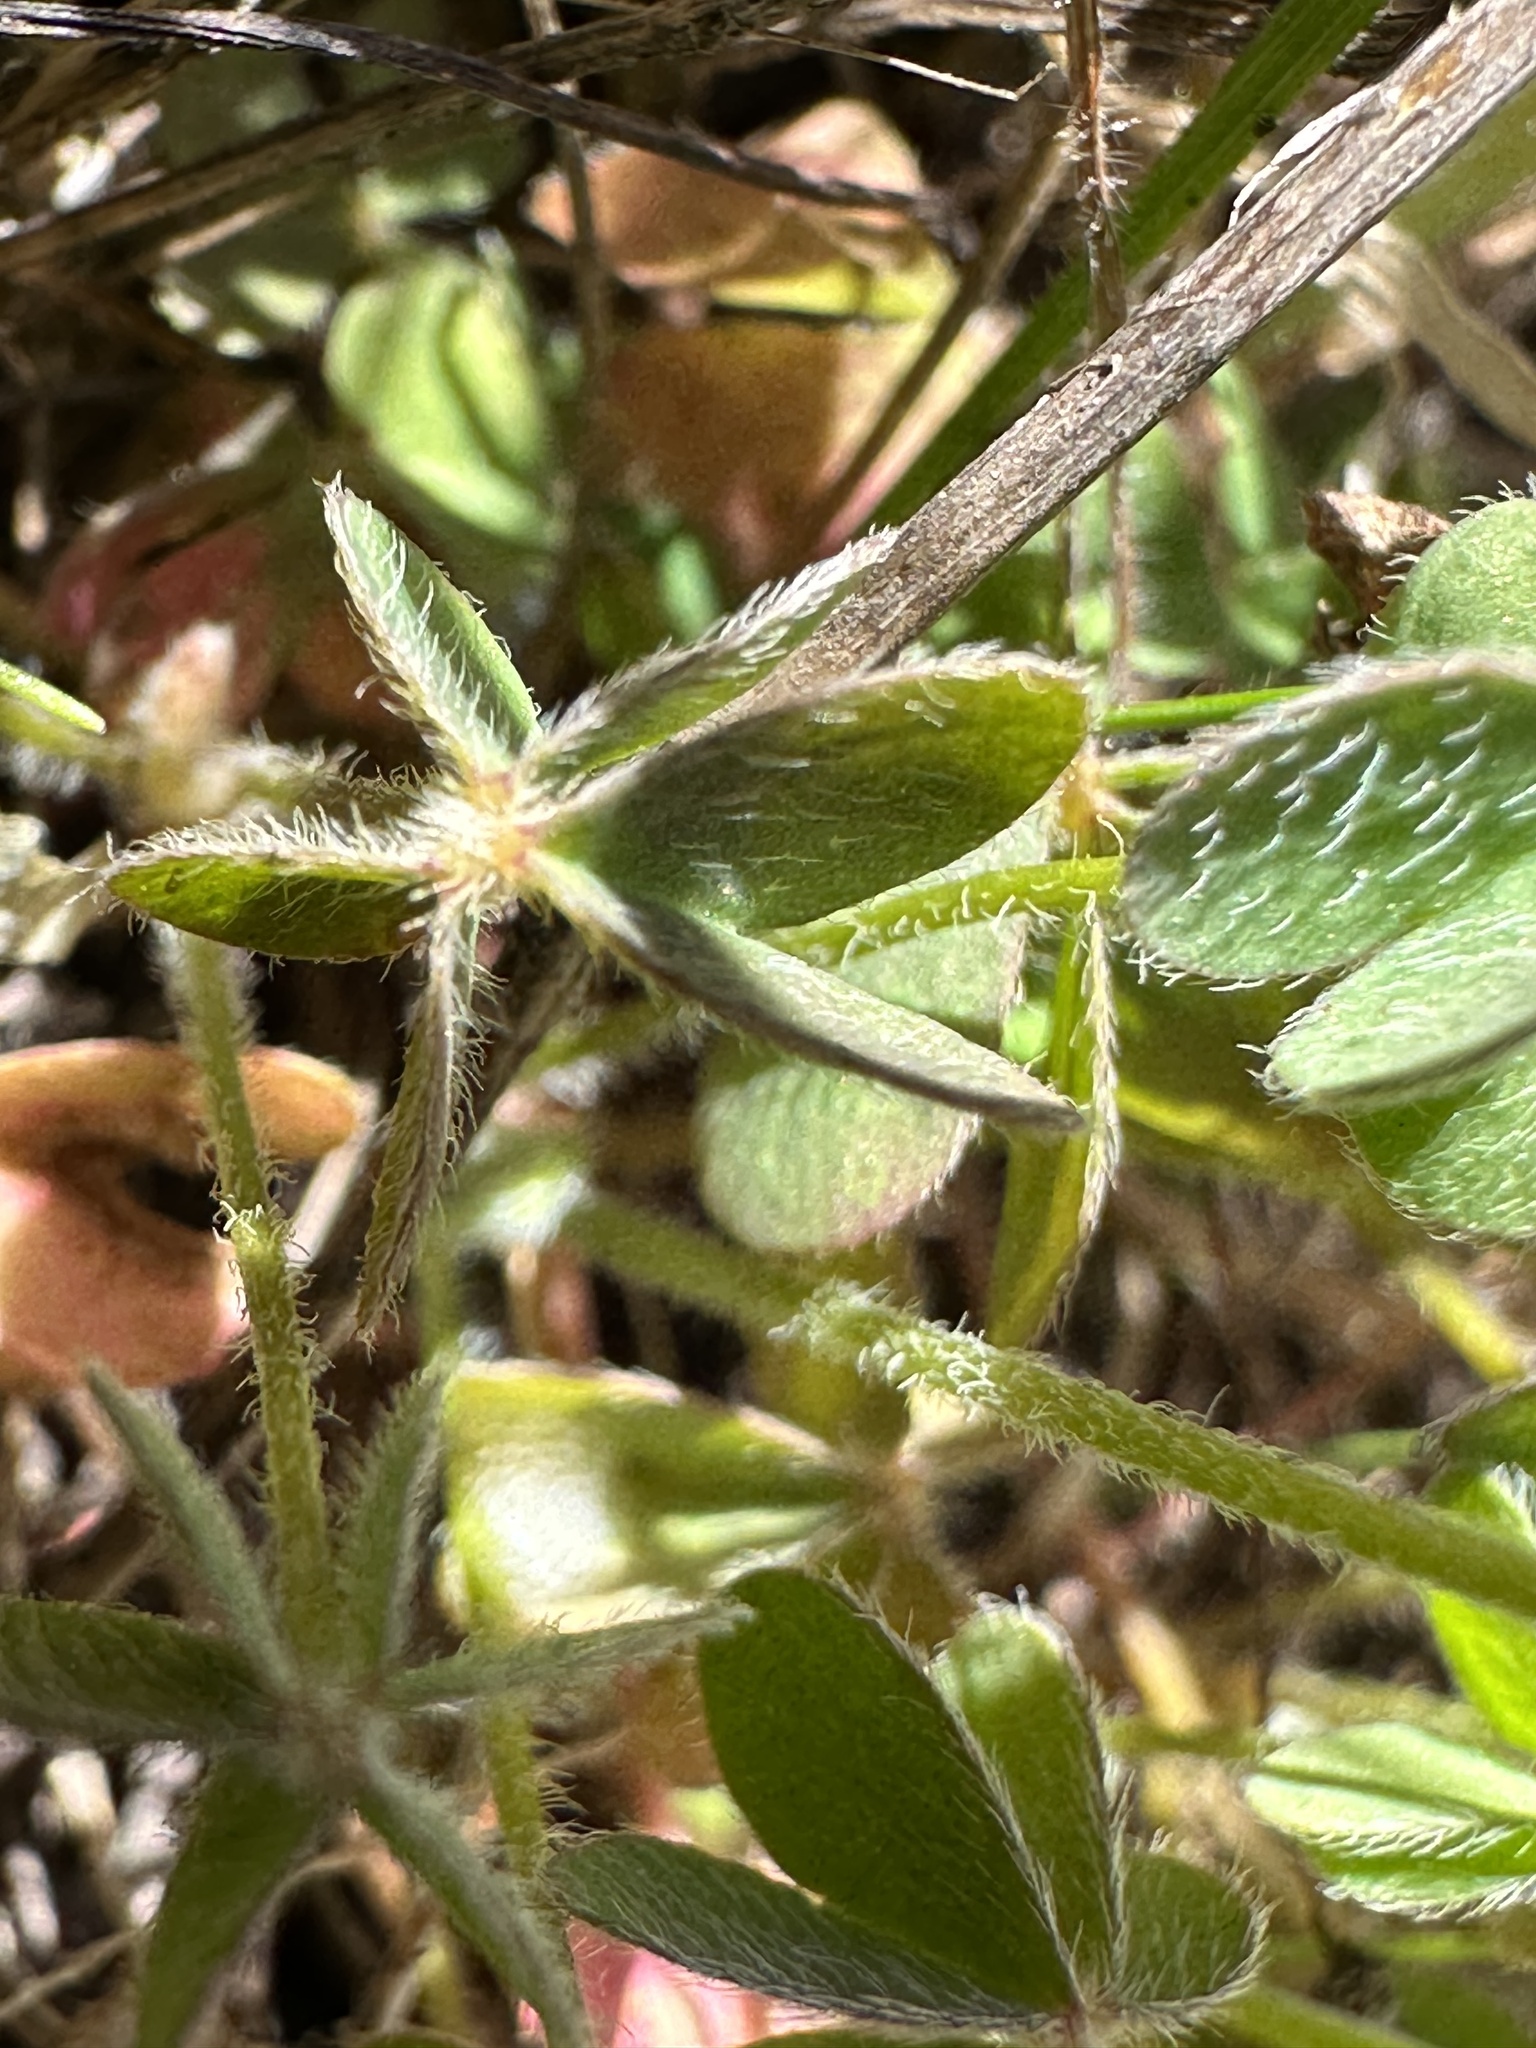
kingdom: Plantae
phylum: Tracheophyta
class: Magnoliopsida
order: Oxalidales
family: Oxalidaceae
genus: Oxalis
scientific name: Oxalis pilosa
